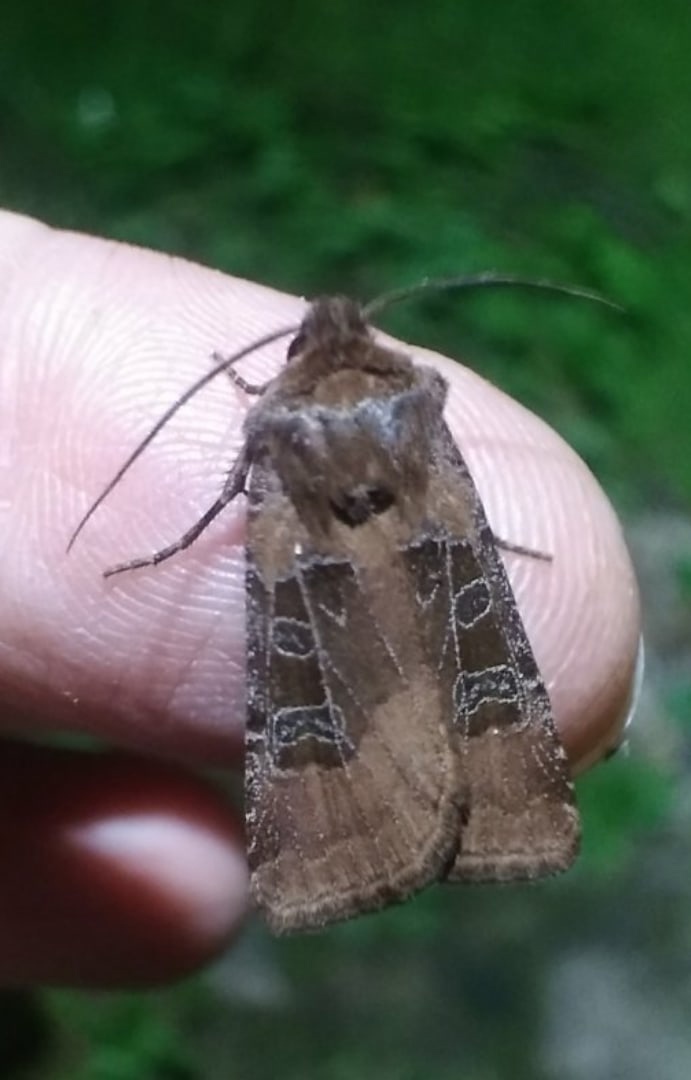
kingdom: Animalia
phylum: Arthropoda
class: Insecta
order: Lepidoptera
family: Noctuidae
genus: Chersotis
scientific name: Chersotis cuprea
